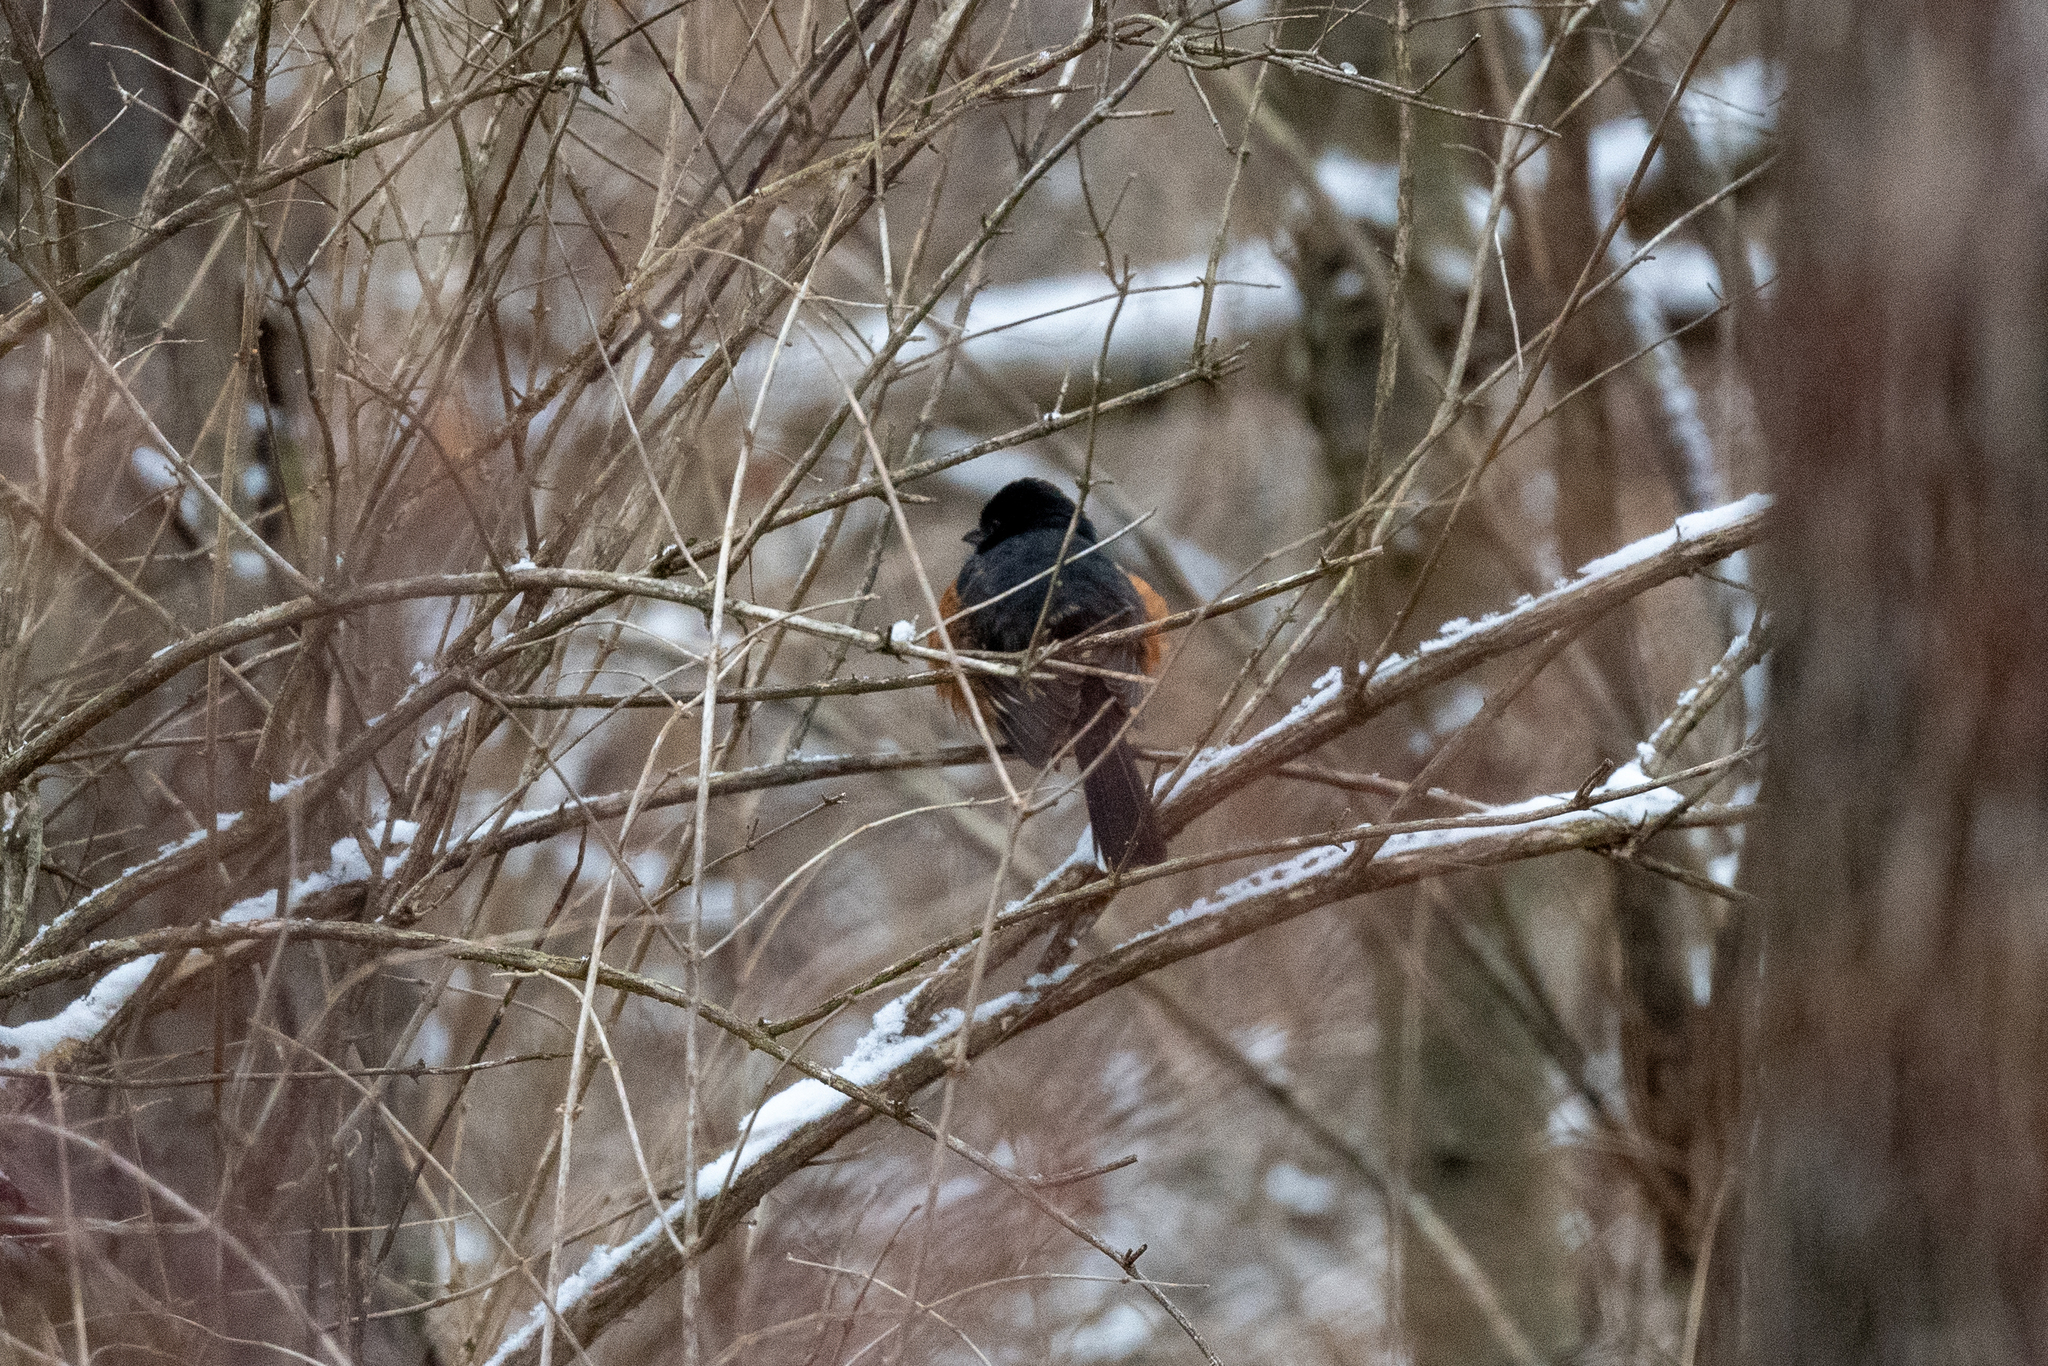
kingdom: Animalia
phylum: Chordata
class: Aves
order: Passeriformes
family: Passerellidae
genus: Pipilo
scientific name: Pipilo erythrophthalmus
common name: Eastern towhee
